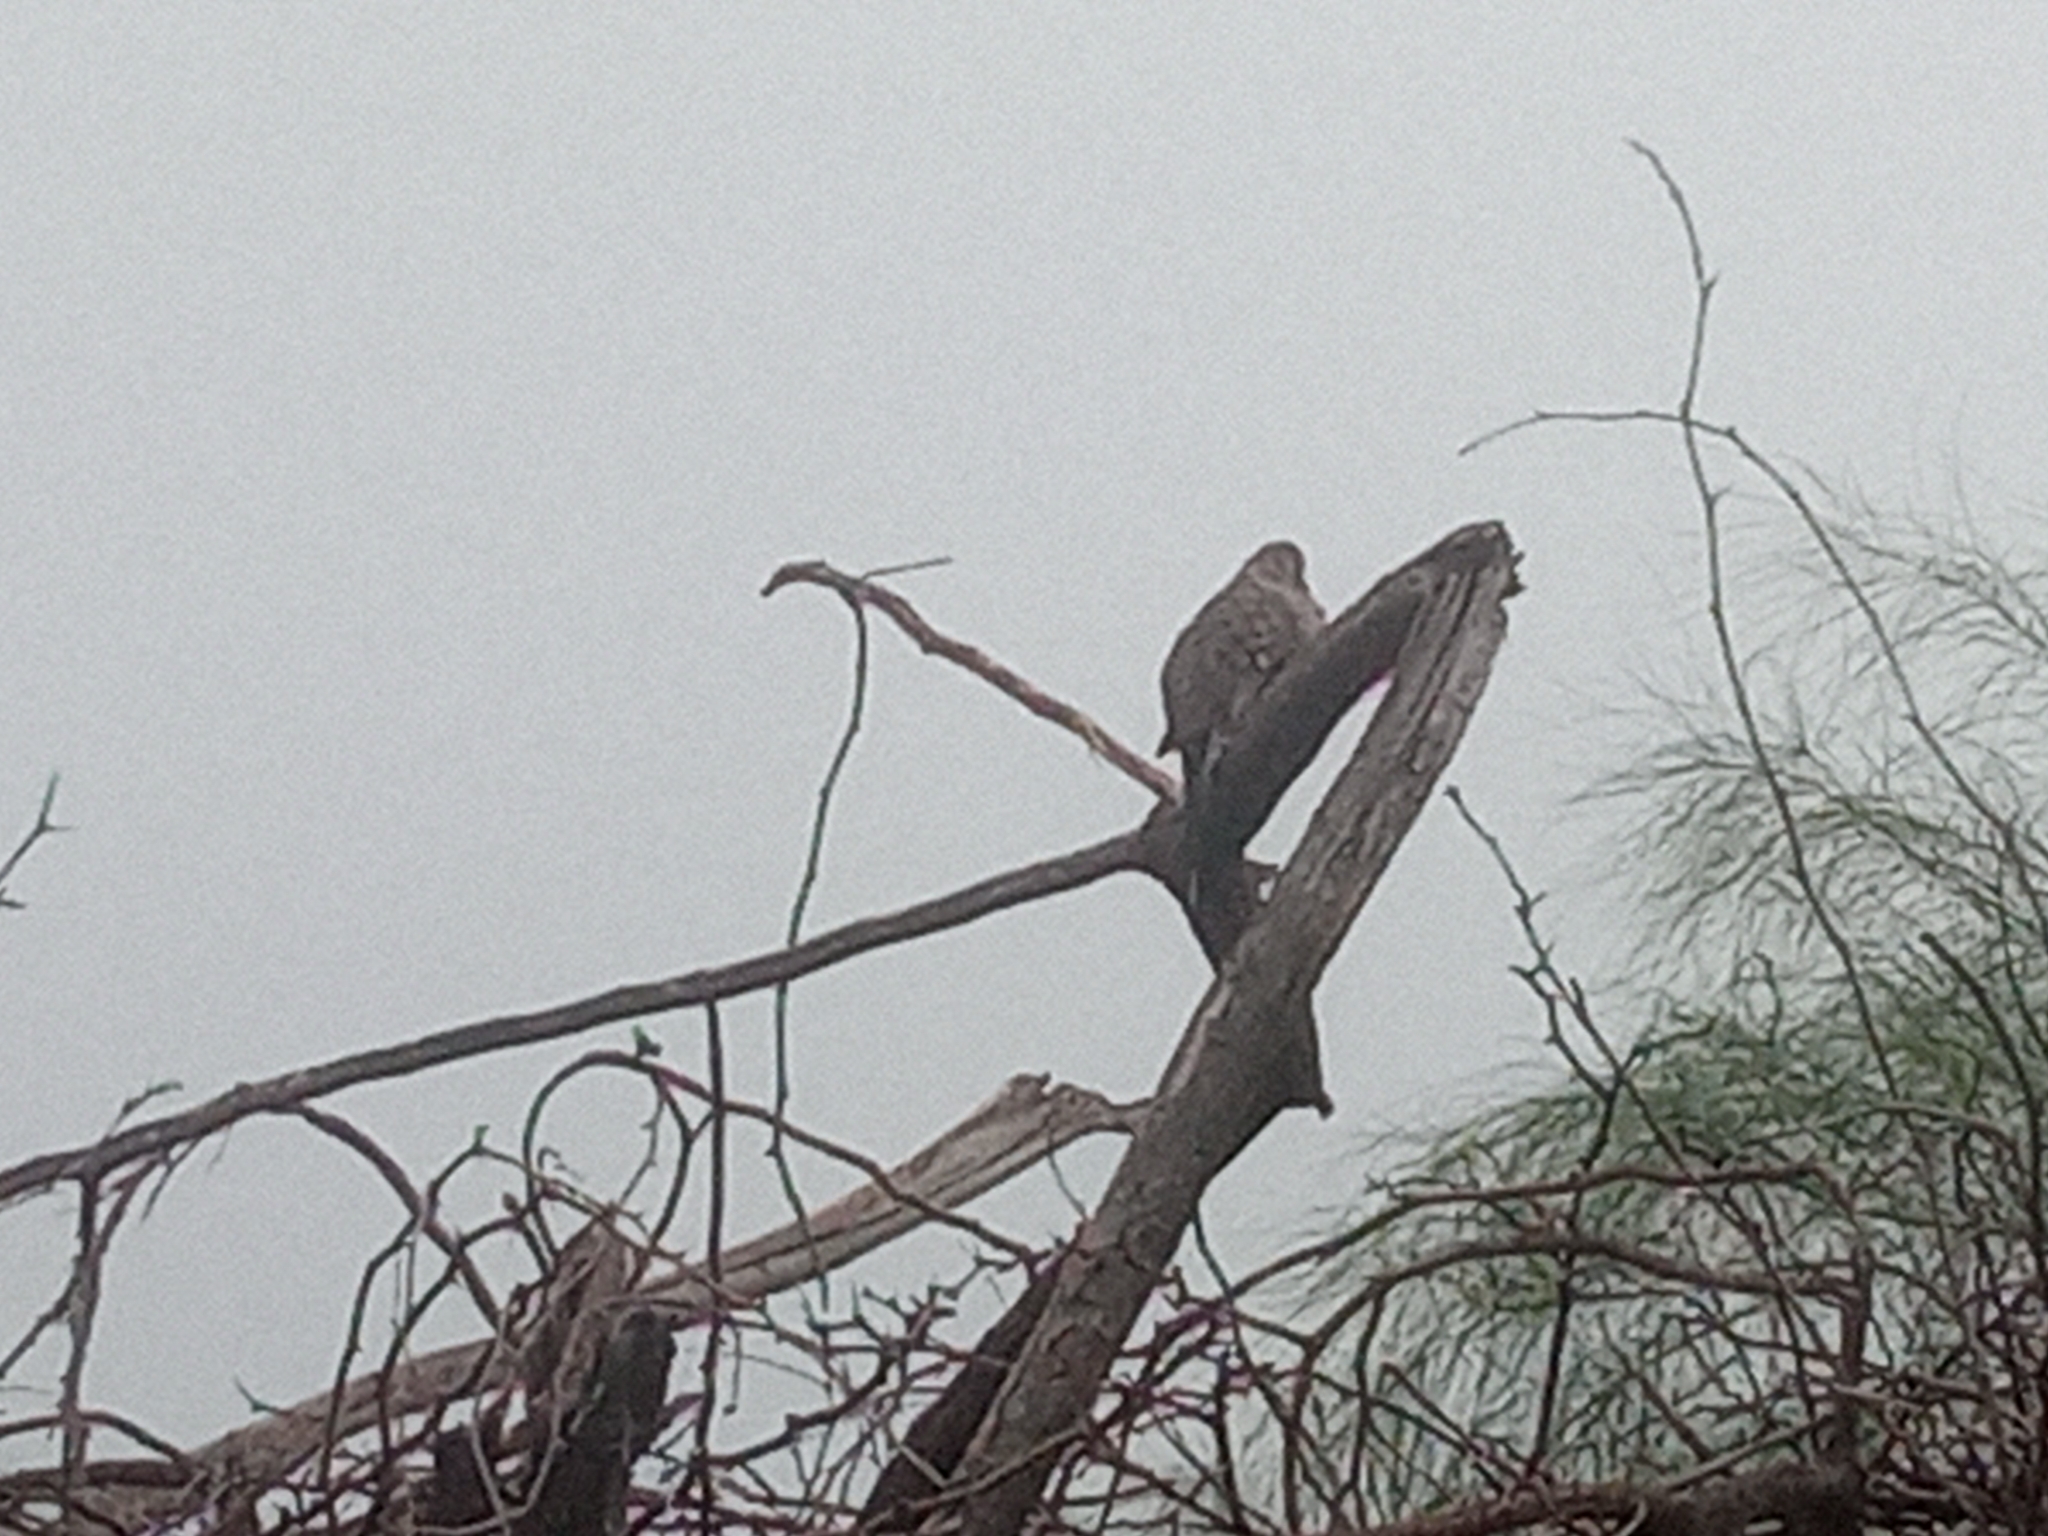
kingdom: Animalia
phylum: Chordata
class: Aves
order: Columbiformes
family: Columbidae
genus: Columbina
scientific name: Columbina inca
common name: Inca dove
